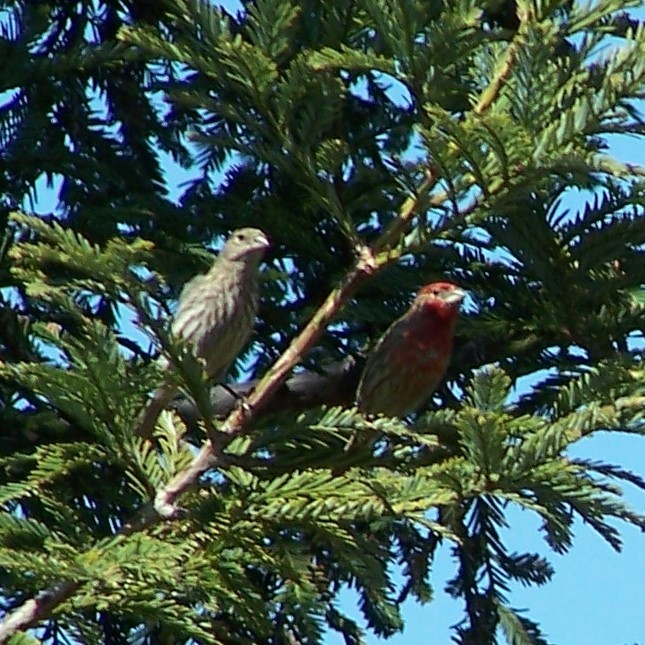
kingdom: Animalia
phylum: Chordata
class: Aves
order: Passeriformes
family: Fringillidae
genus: Haemorhous
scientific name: Haemorhous mexicanus
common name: House finch
